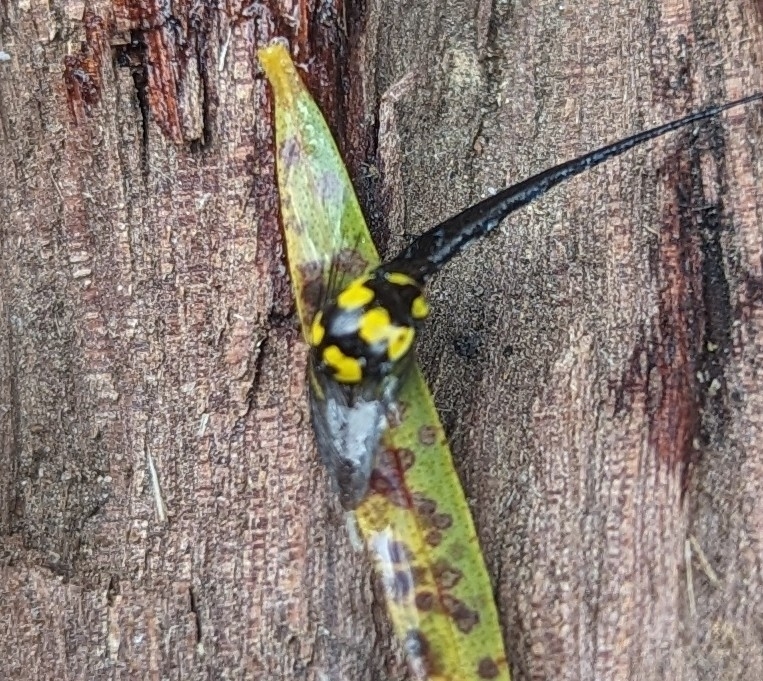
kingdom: Animalia
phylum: Arthropoda
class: Insecta
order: Coleoptera
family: Coccinellidae
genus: Illeis
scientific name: Illeis galbula
